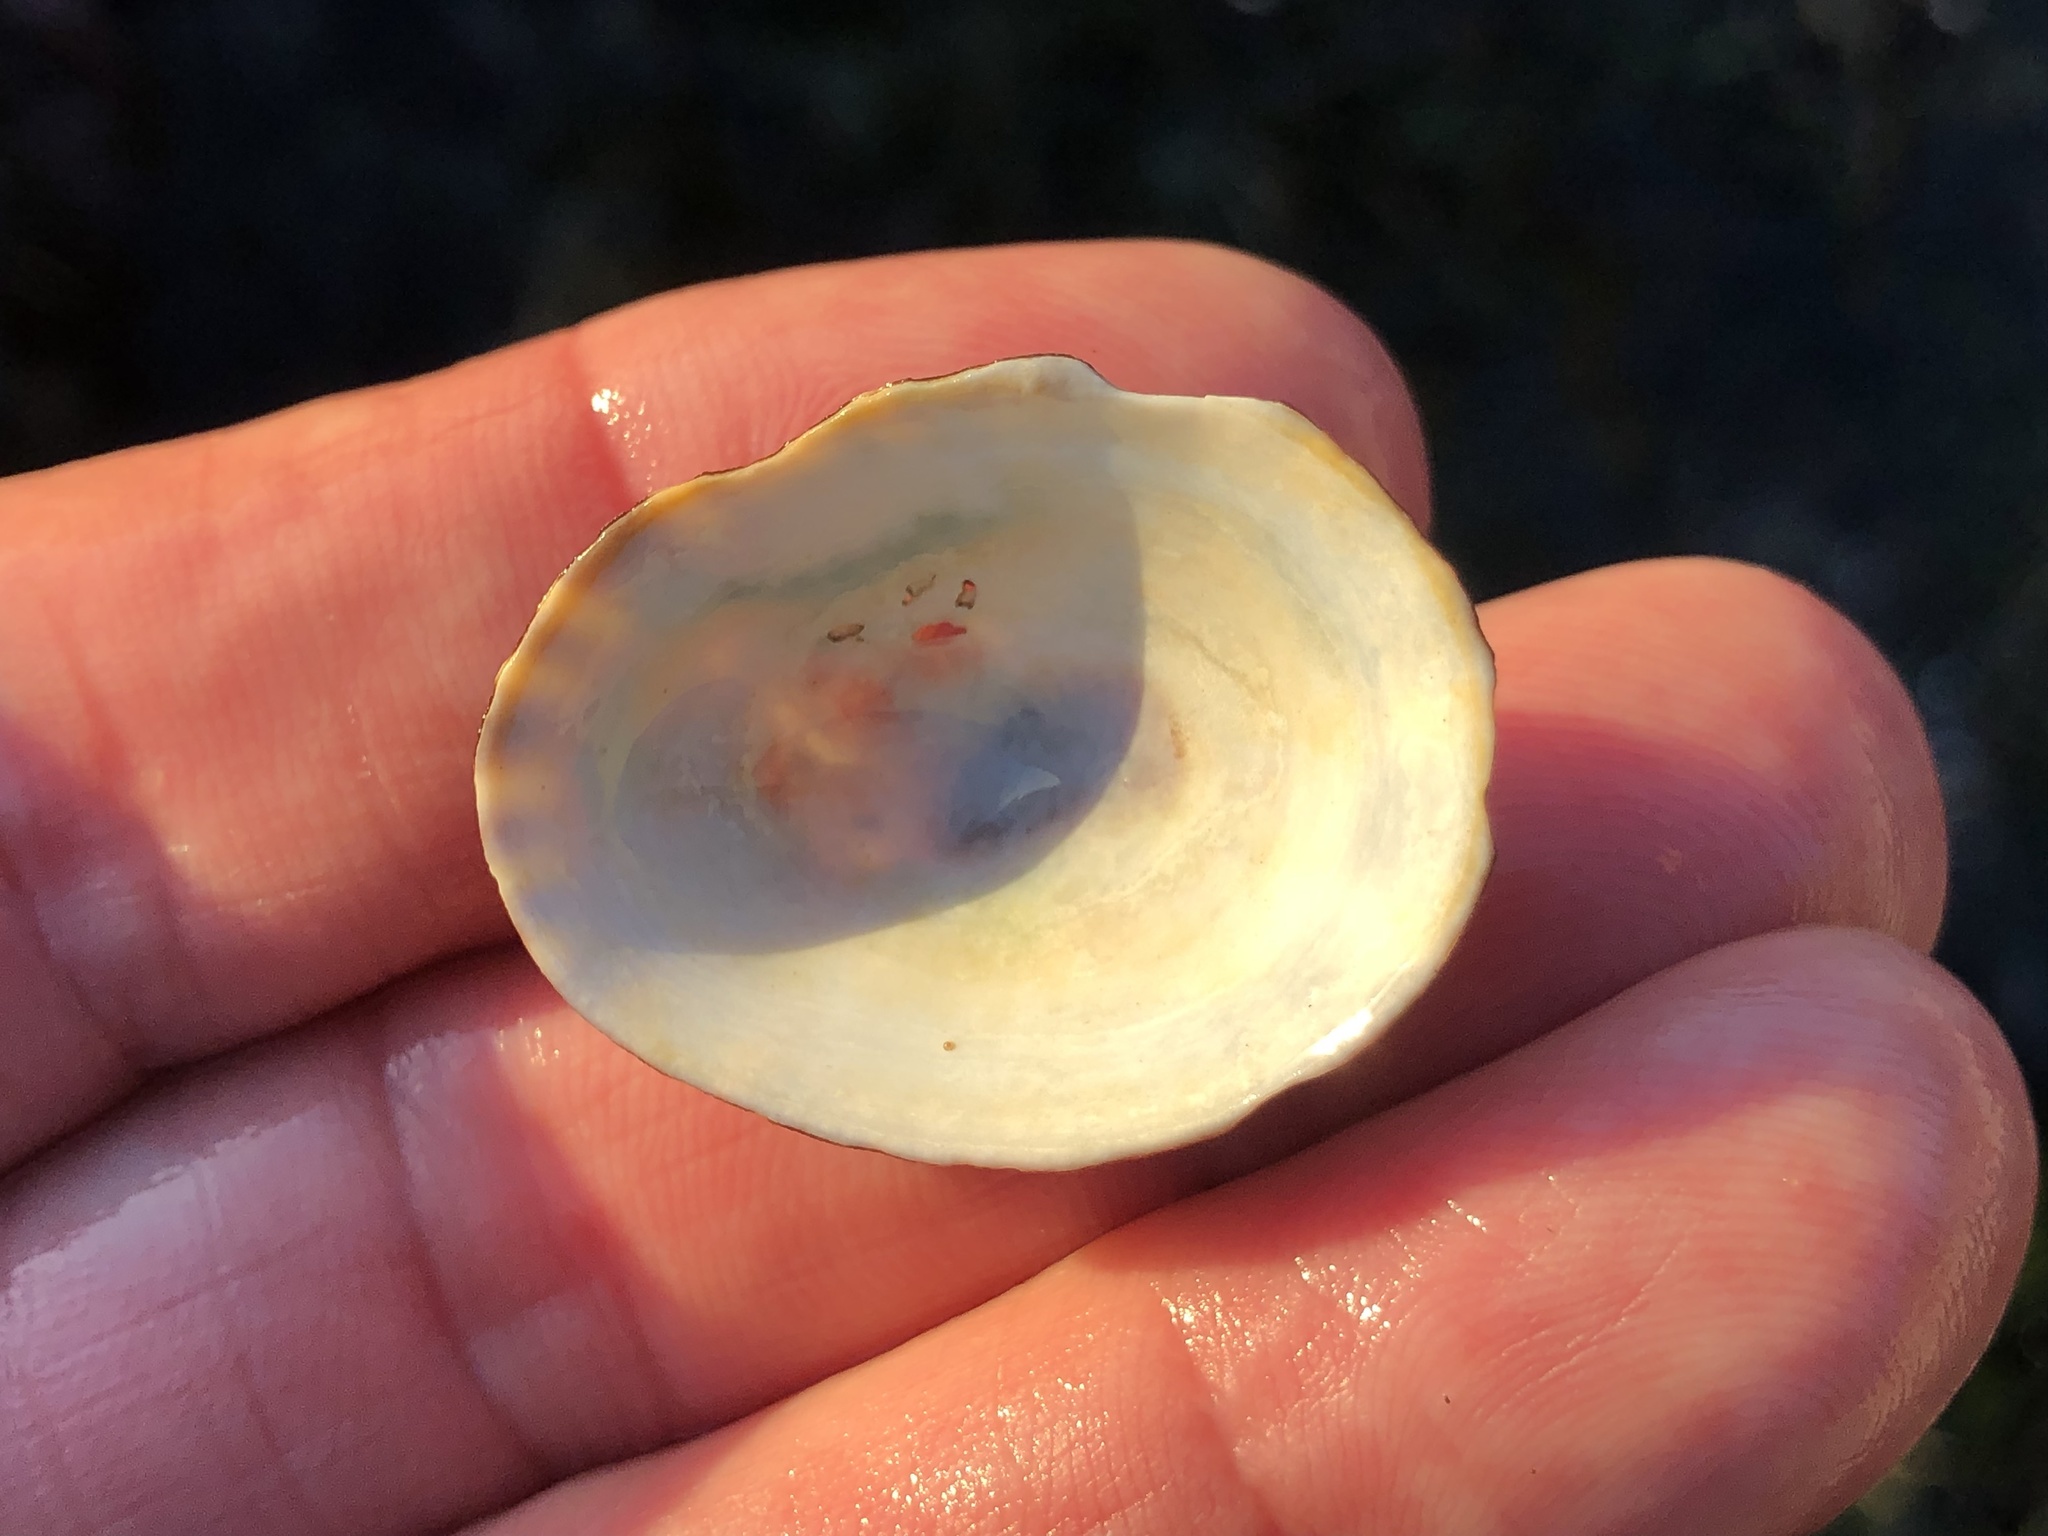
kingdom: Animalia
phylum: Mollusca
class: Gastropoda
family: Lottiidae
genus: Lottia
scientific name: Lottia pelta
